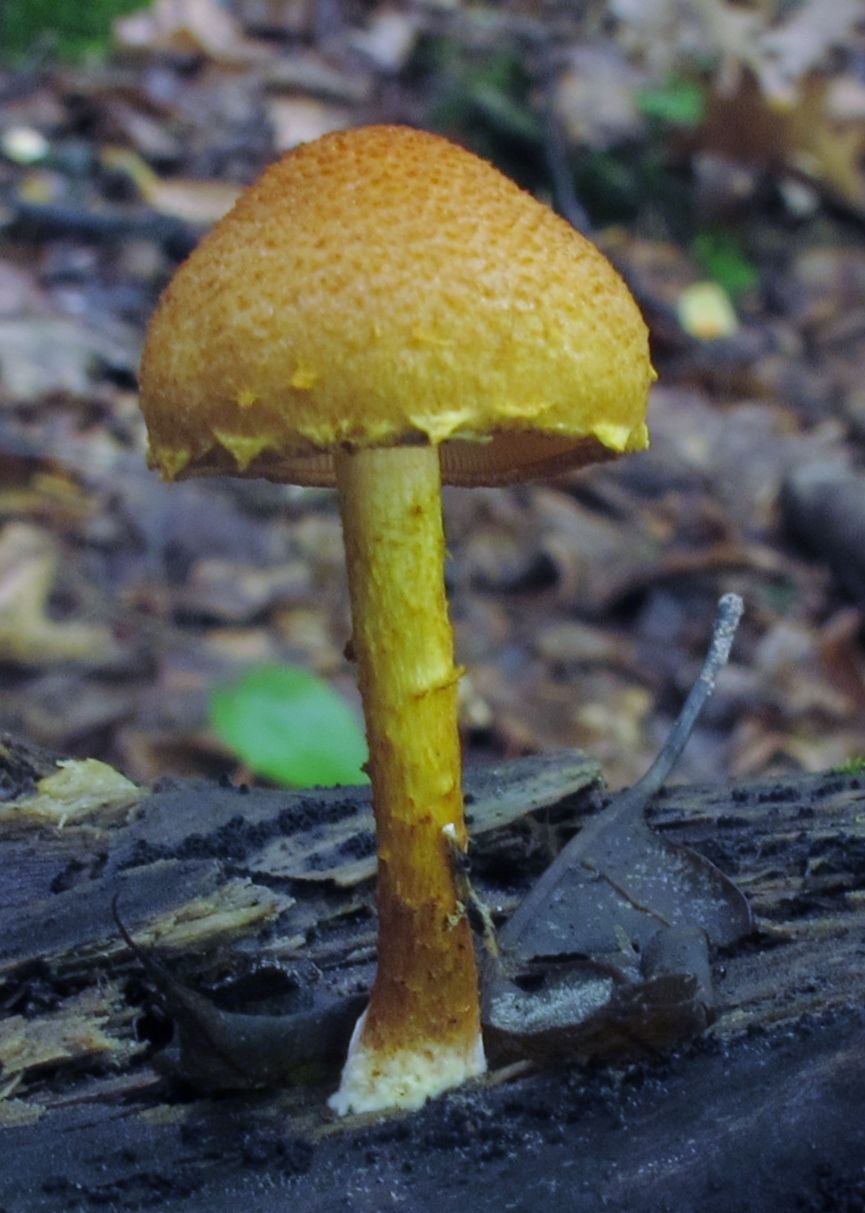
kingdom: Fungi
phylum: Basidiomycota
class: Agaricomycetes
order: Agaricales
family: Strophariaceae
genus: Pholiota
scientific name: Pholiota granulosa
